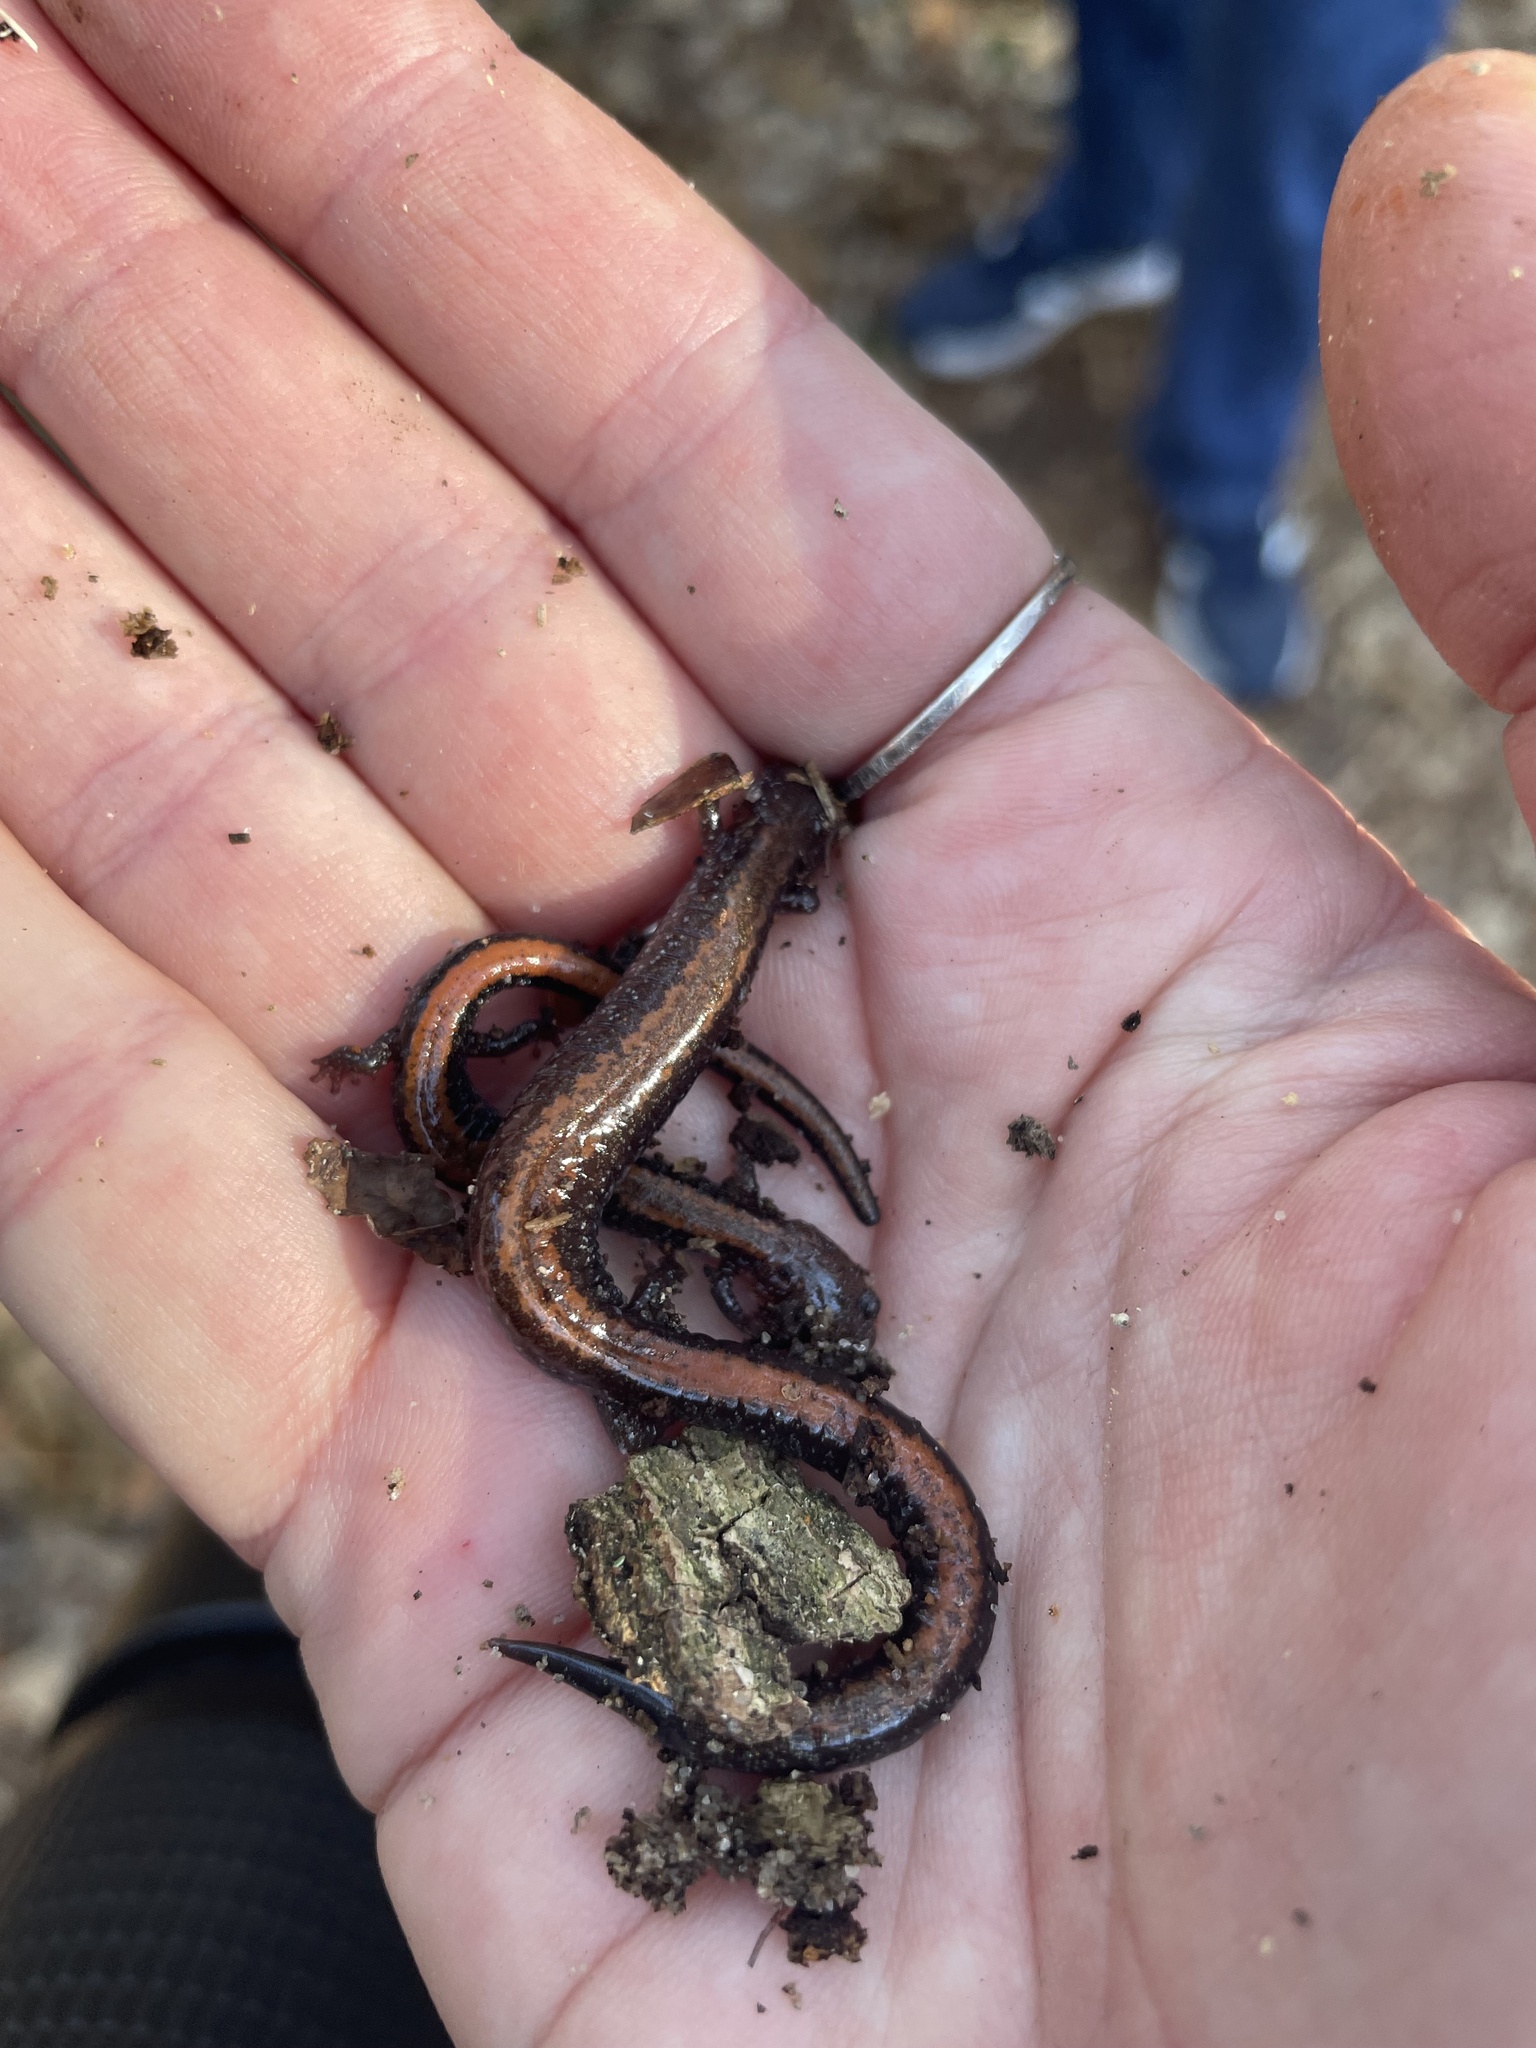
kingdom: Animalia
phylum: Chordata
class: Amphibia
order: Caudata
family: Plethodontidae
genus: Plethodon
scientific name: Plethodon cinereus
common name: Redback salamander
